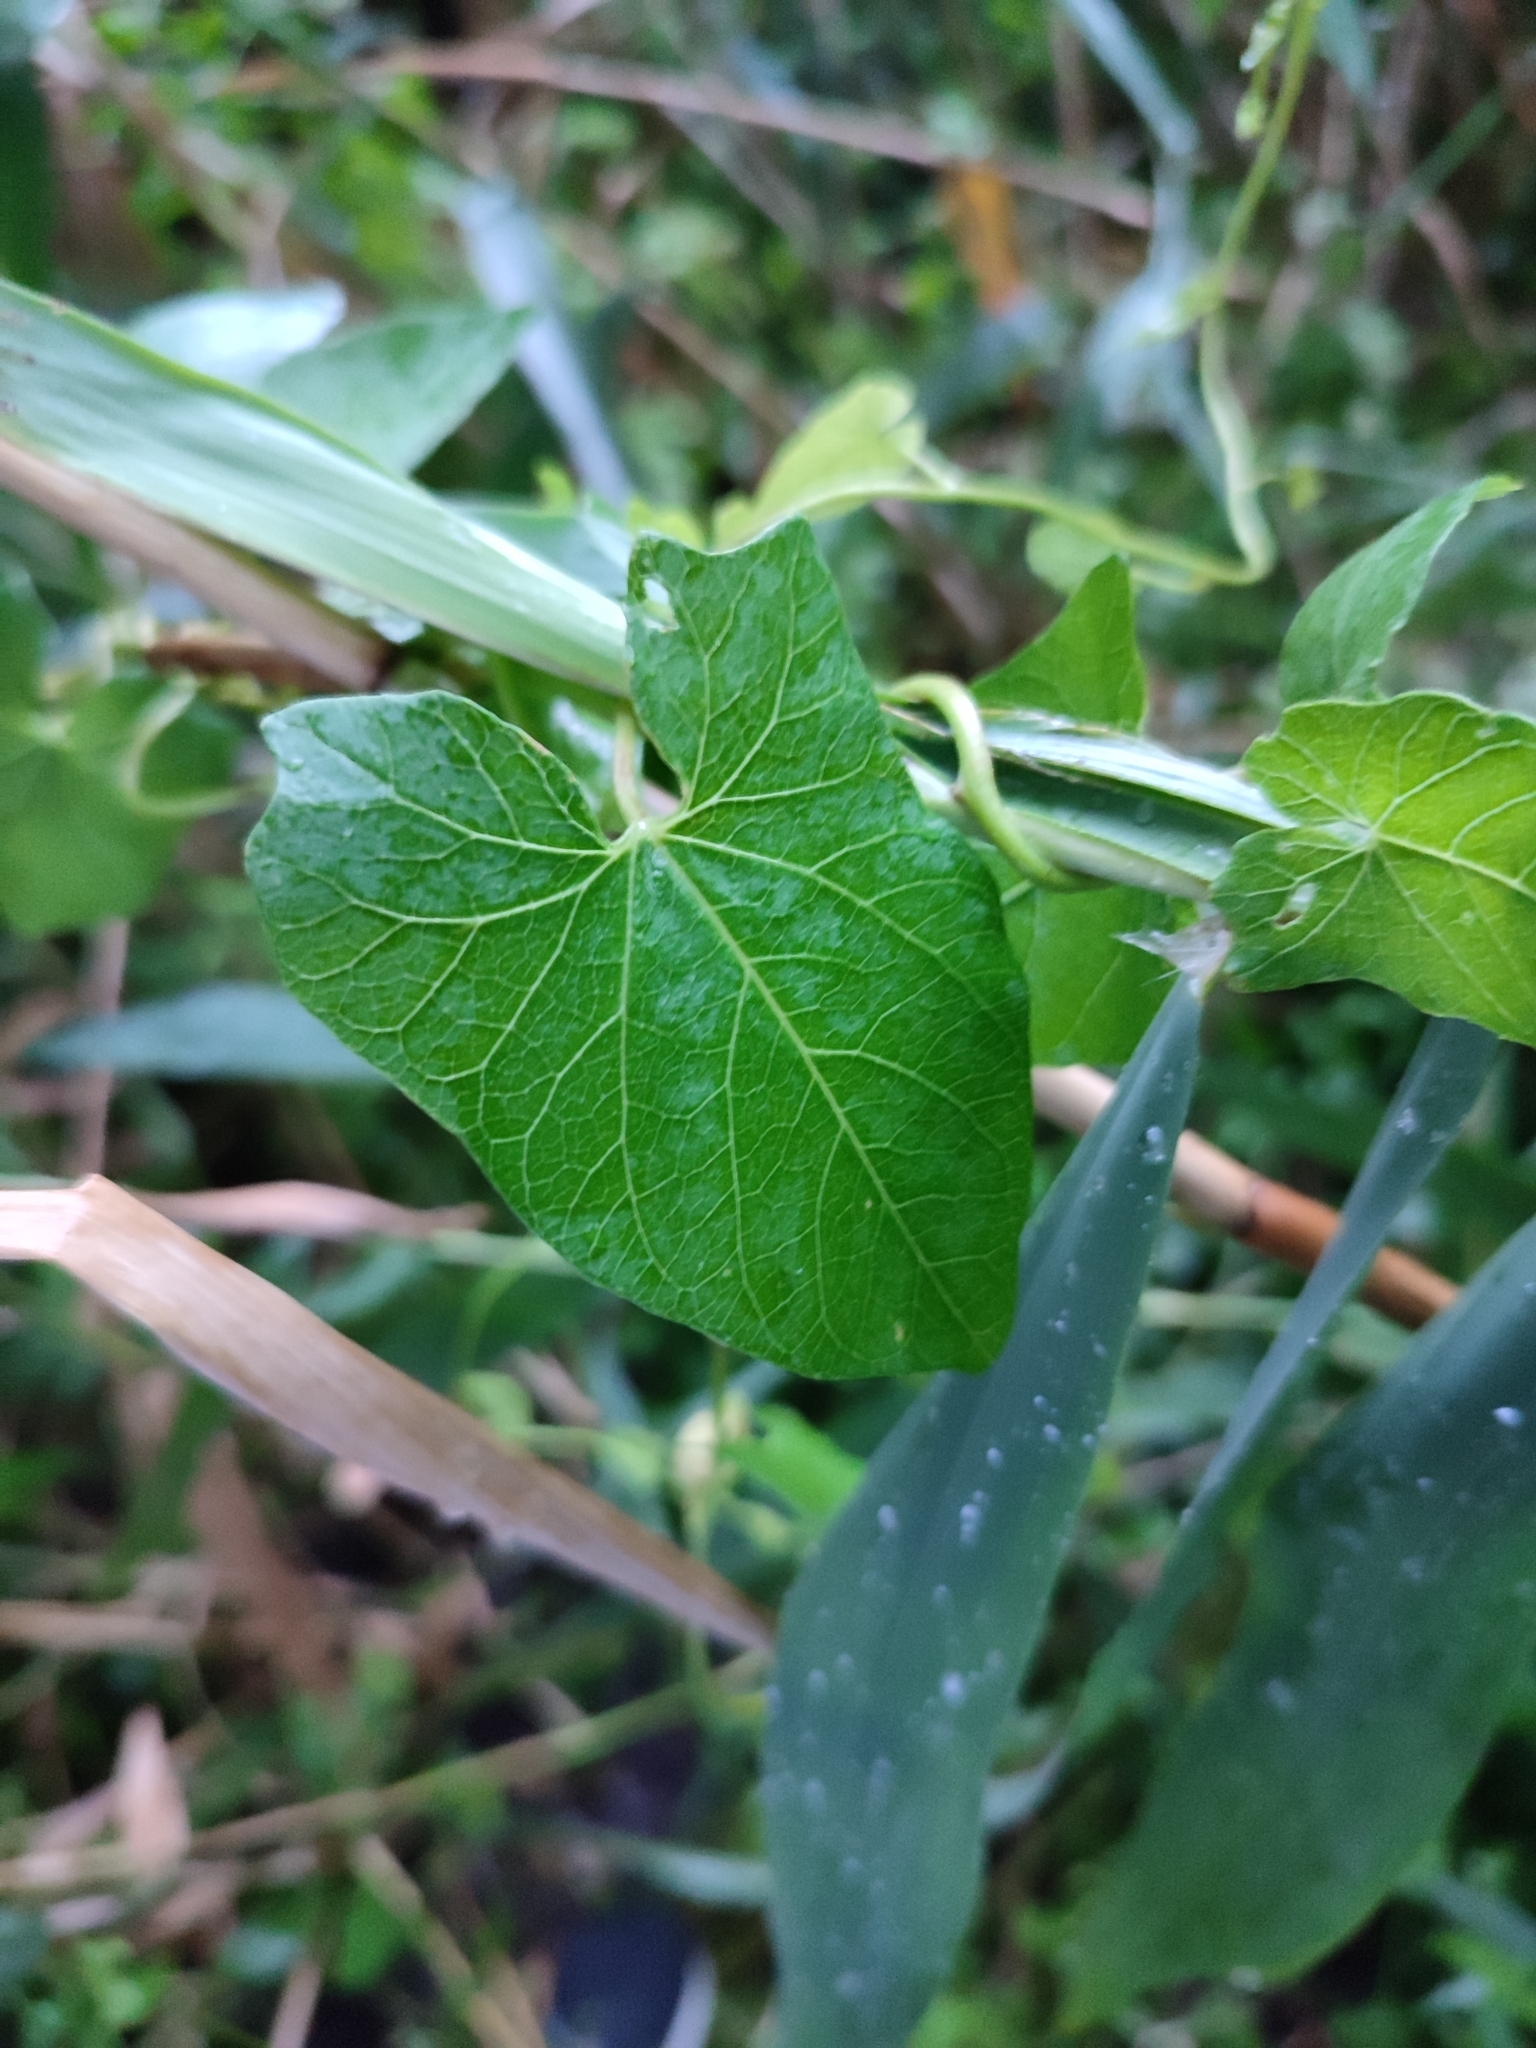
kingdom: Plantae
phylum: Tracheophyta
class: Magnoliopsida
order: Solanales
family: Convolvulaceae
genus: Calystegia
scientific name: Calystegia sepium
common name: Hedge bindweed
